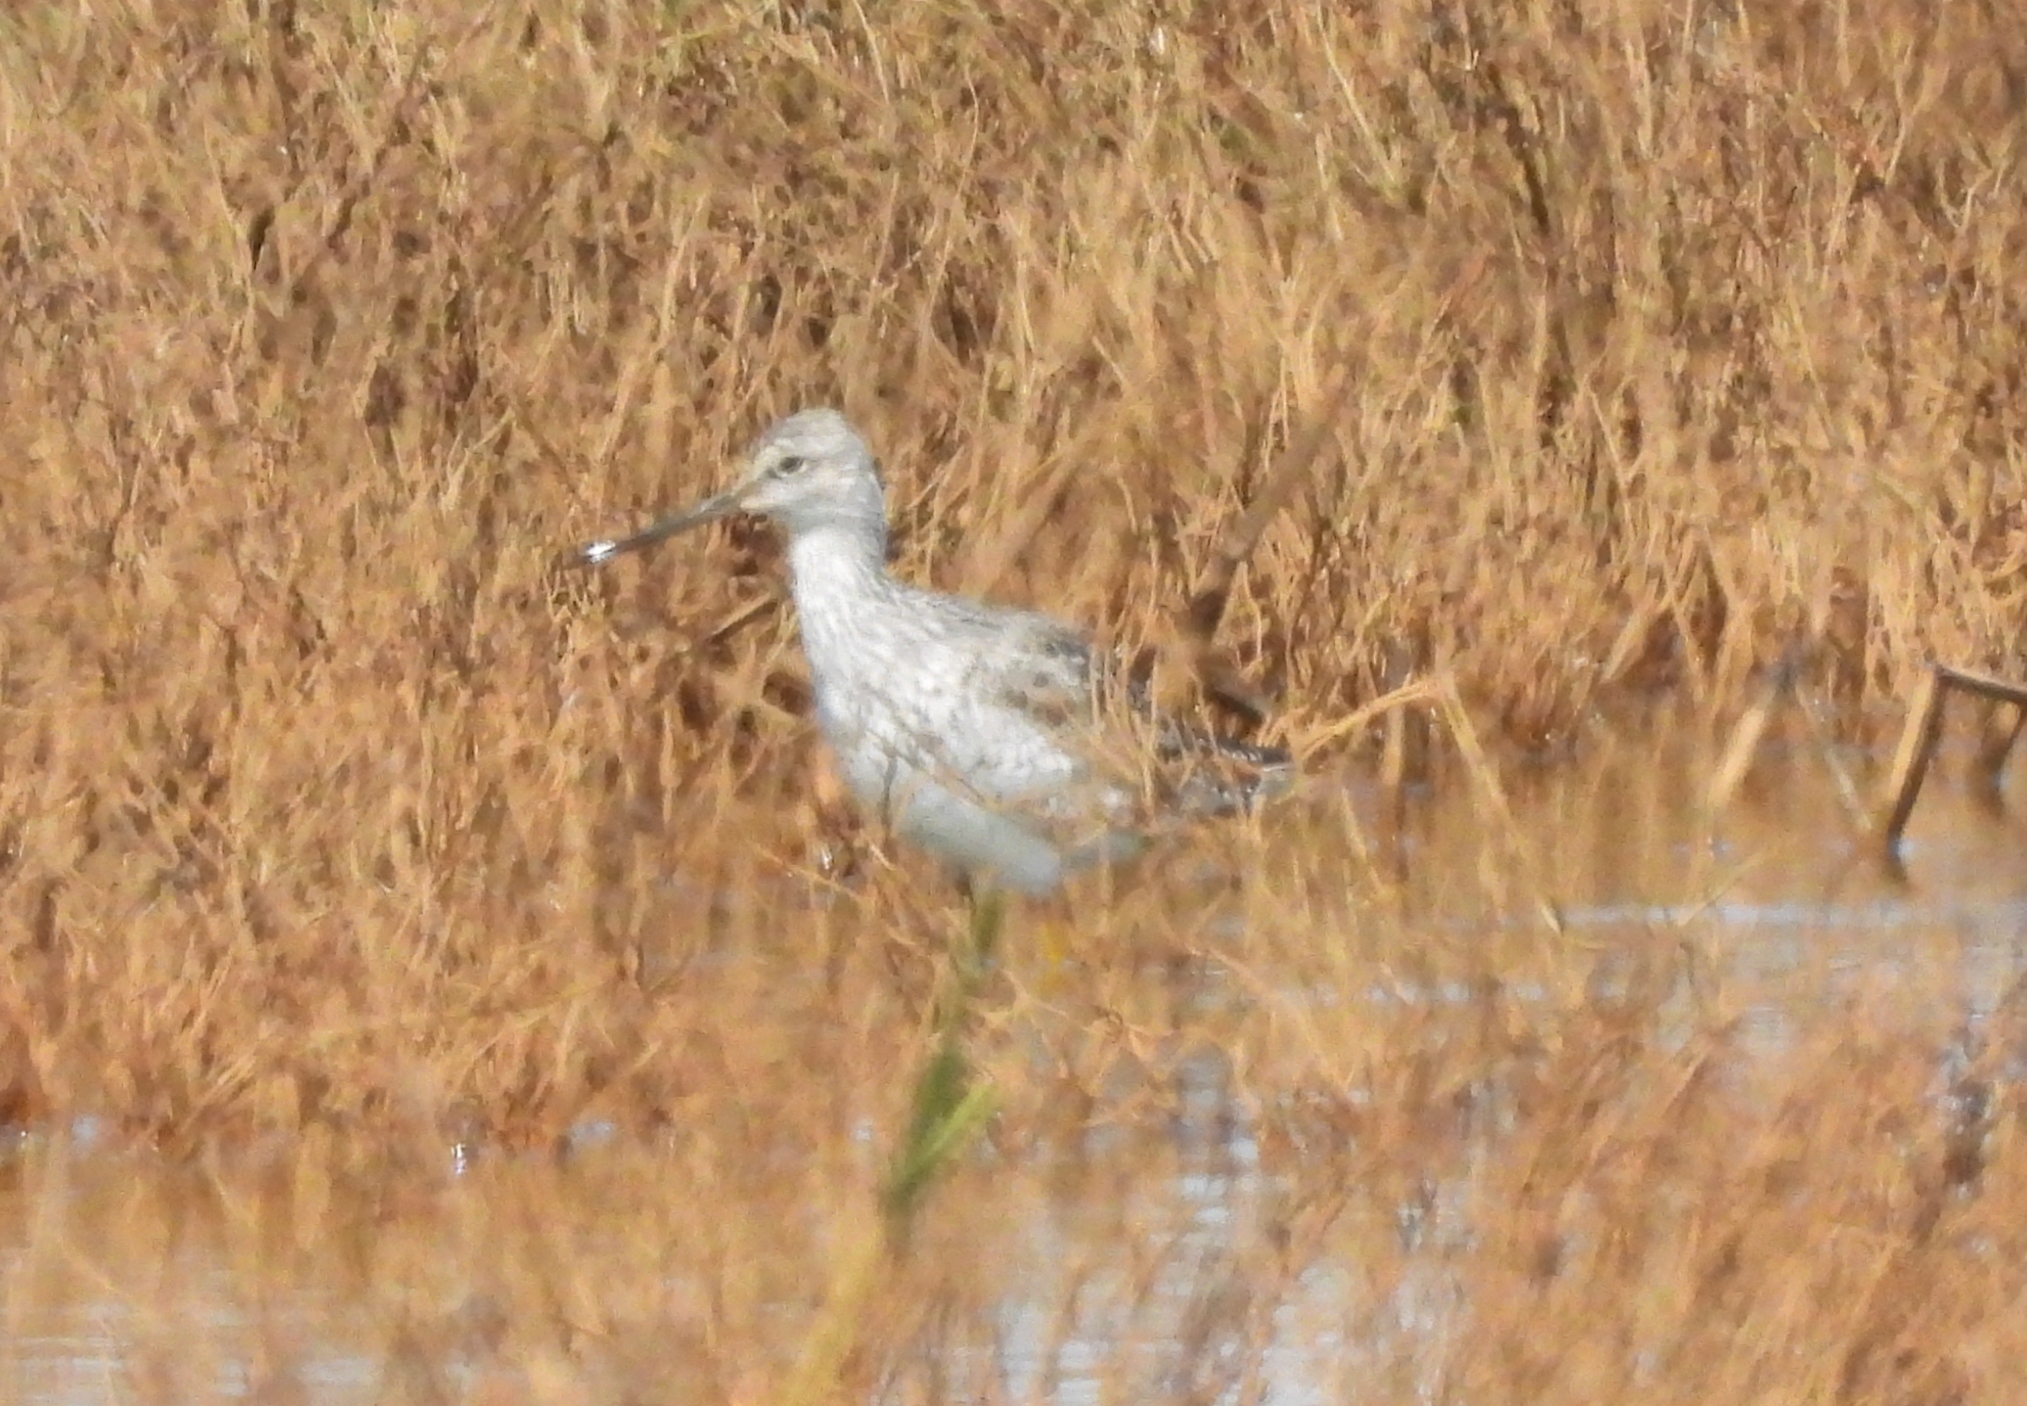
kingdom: Animalia
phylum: Chordata
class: Aves
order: Charadriiformes
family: Scolopacidae
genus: Tringa
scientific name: Tringa melanoleuca
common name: Greater yellowlegs
